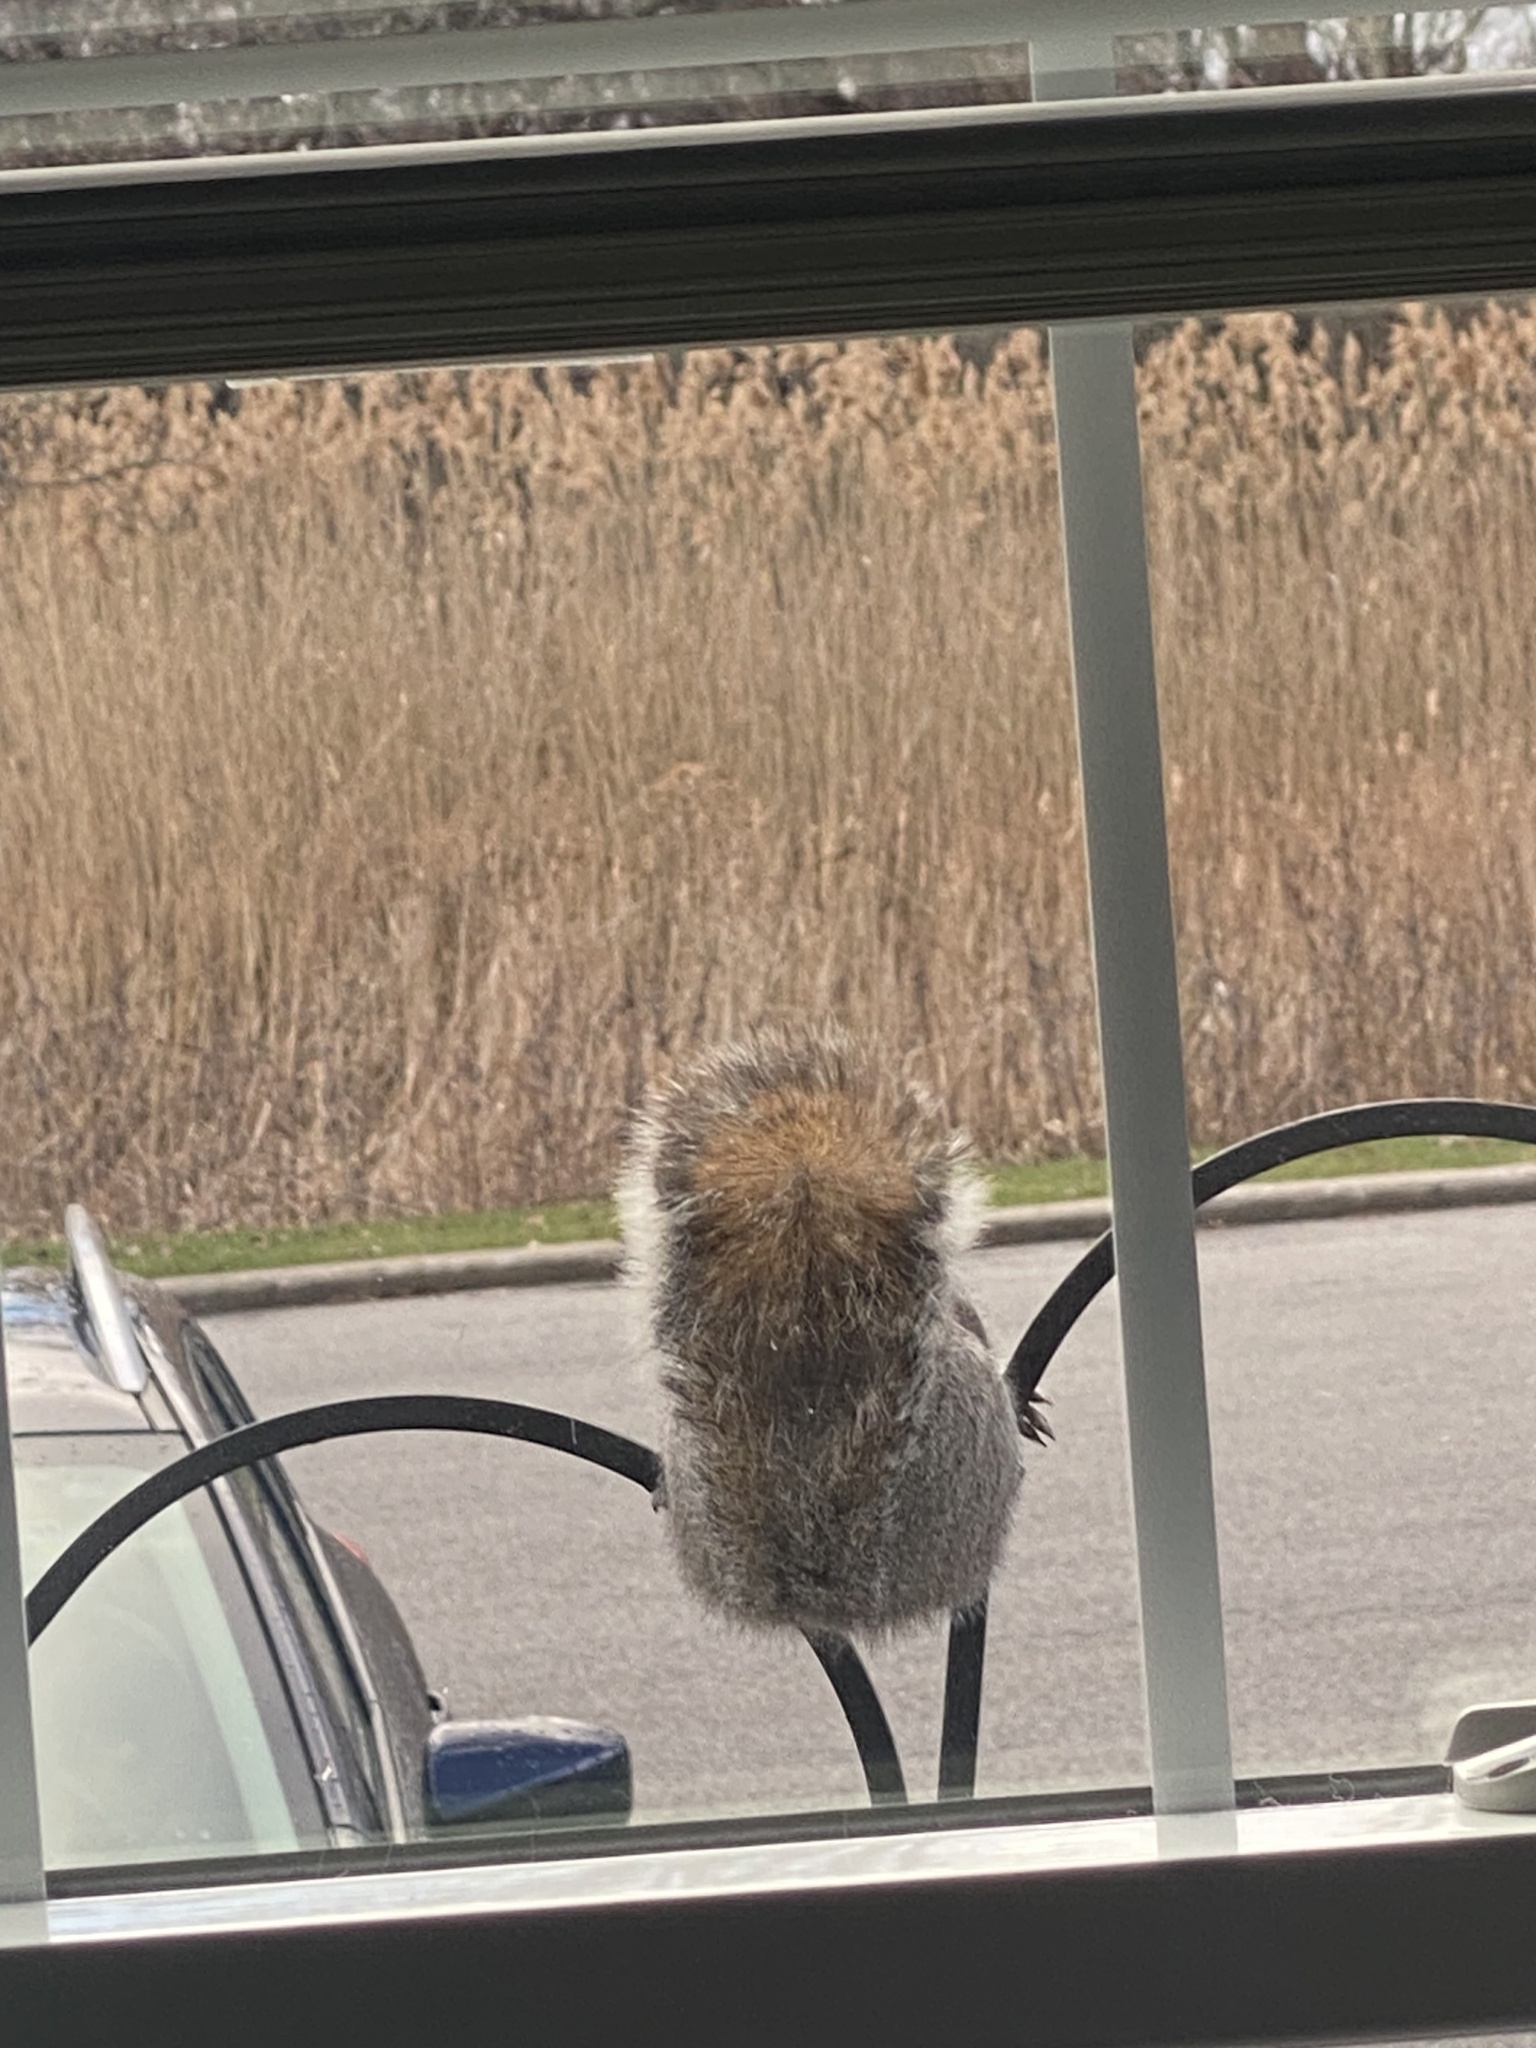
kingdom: Animalia
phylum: Chordata
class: Mammalia
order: Rodentia
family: Sciuridae
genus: Sciurus
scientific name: Sciurus carolinensis
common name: Eastern gray squirrel
